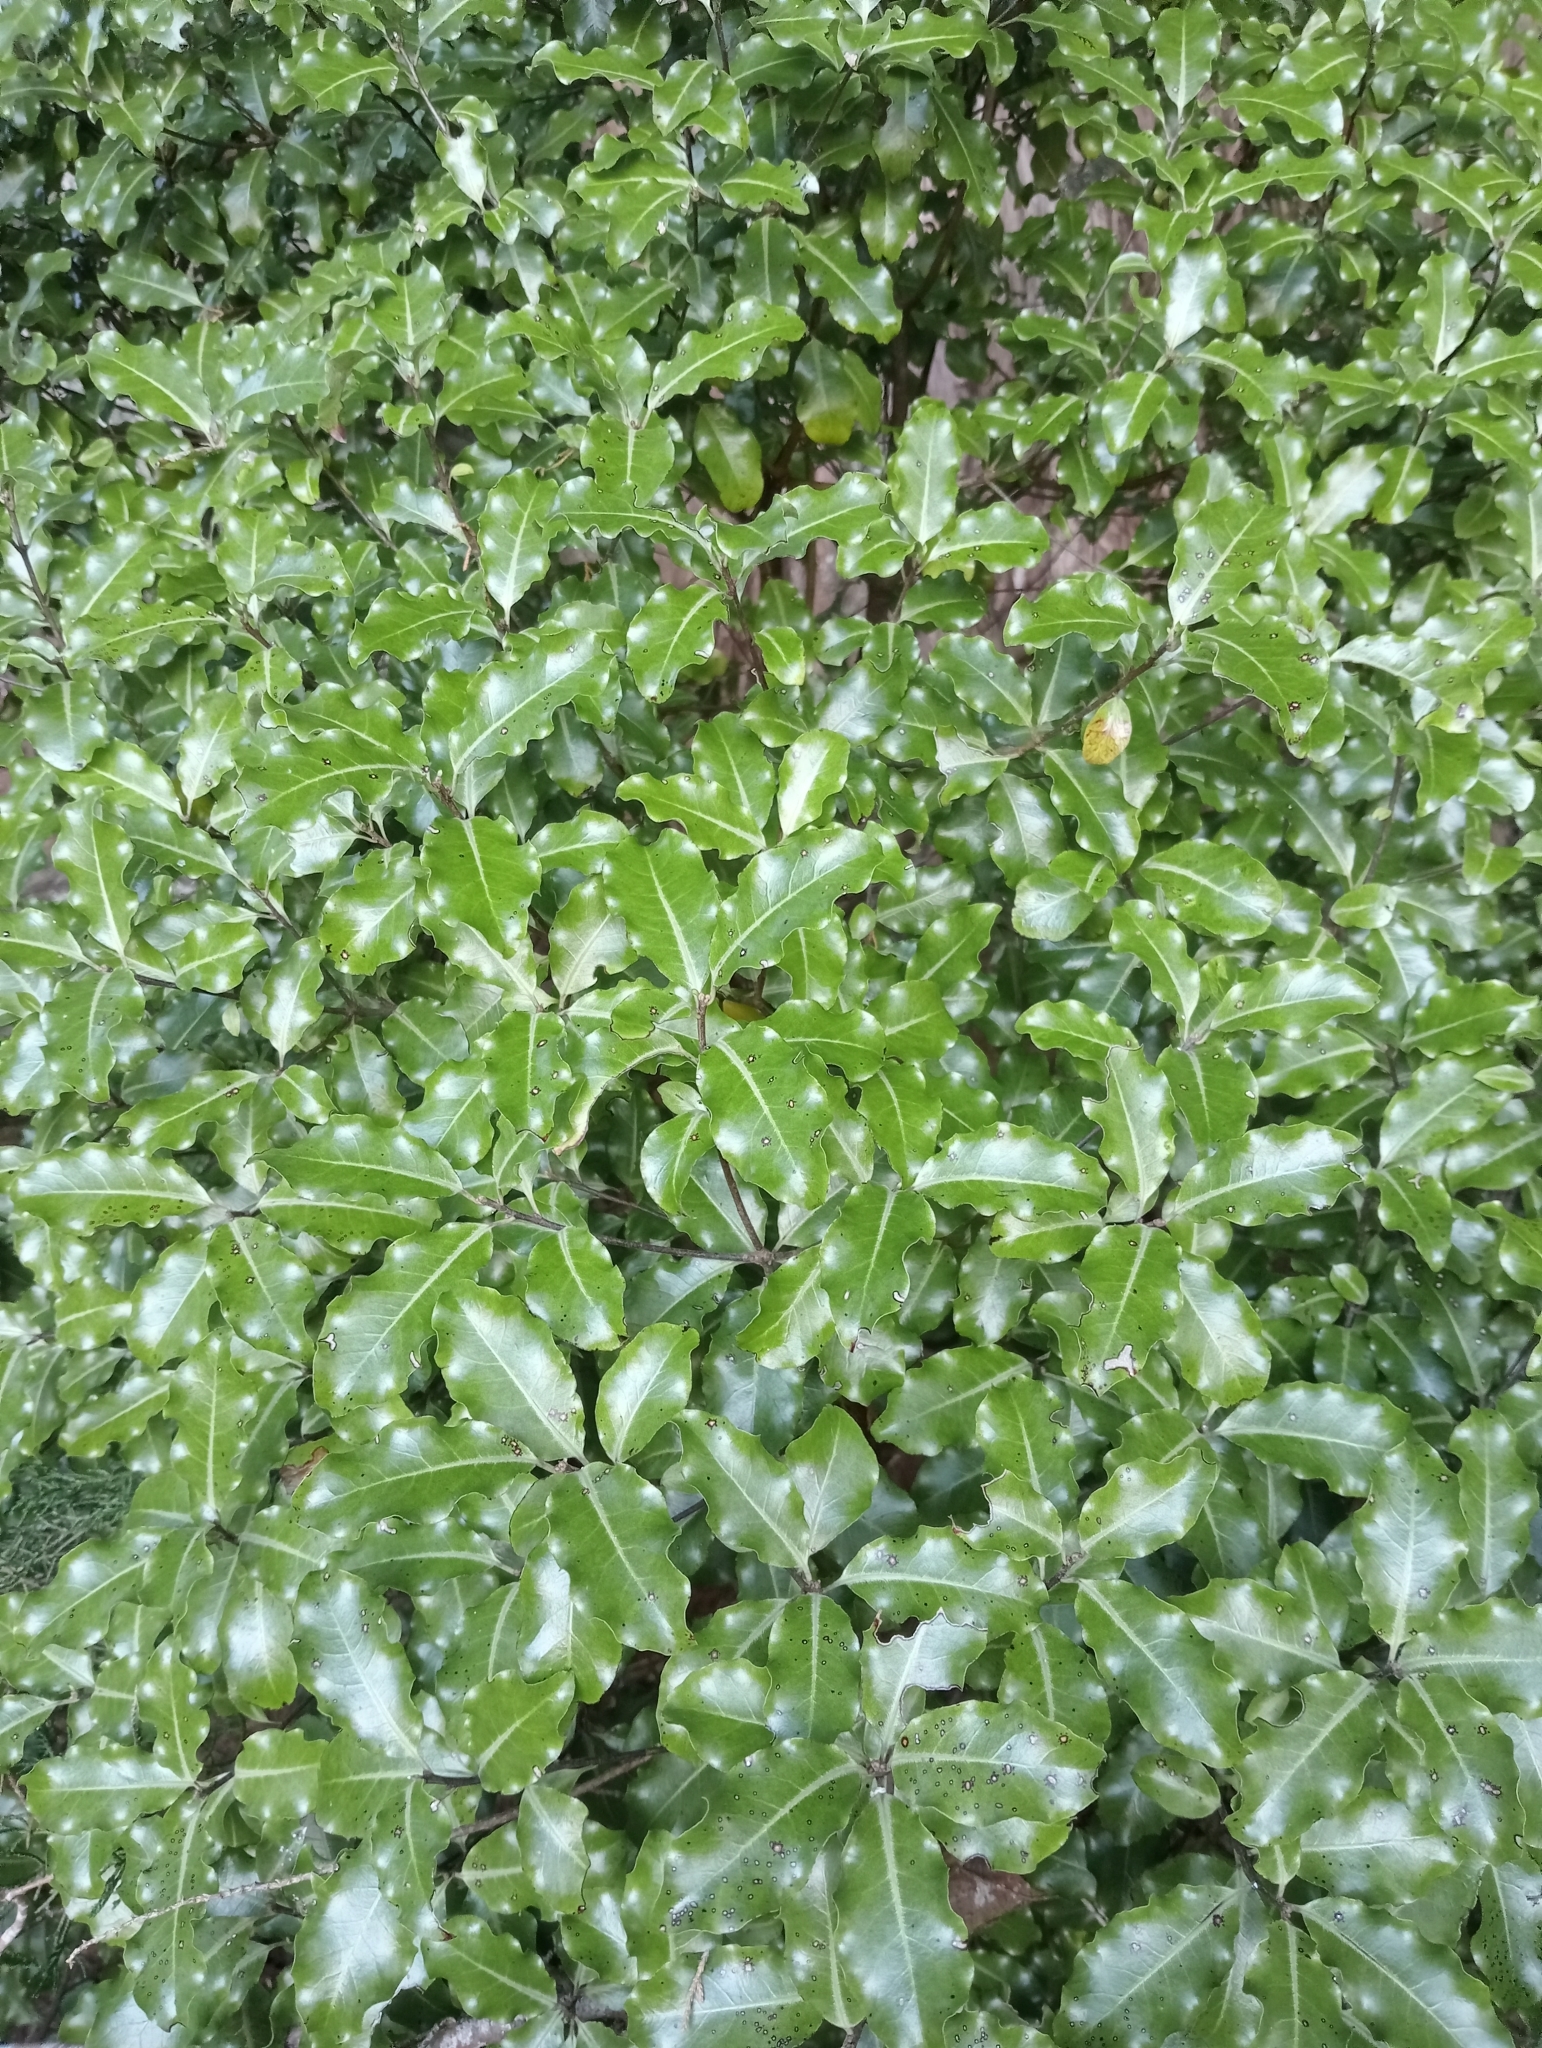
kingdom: Plantae
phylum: Tracheophyta
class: Magnoliopsida
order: Apiales
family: Pittosporaceae
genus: Pittosporum
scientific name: Pittosporum tenuifolium
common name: Kohuhu
